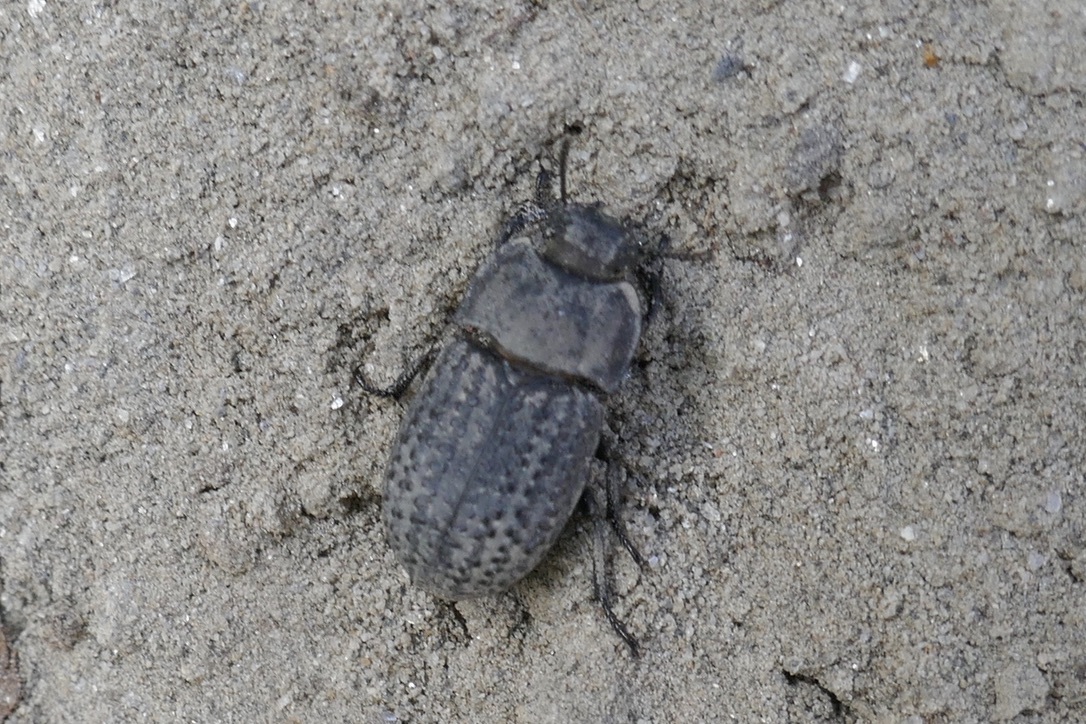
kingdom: Animalia
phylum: Arthropoda
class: Insecta
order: Coleoptera
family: Tenebrionidae
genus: Opatrum
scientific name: Opatrum sabulosum
